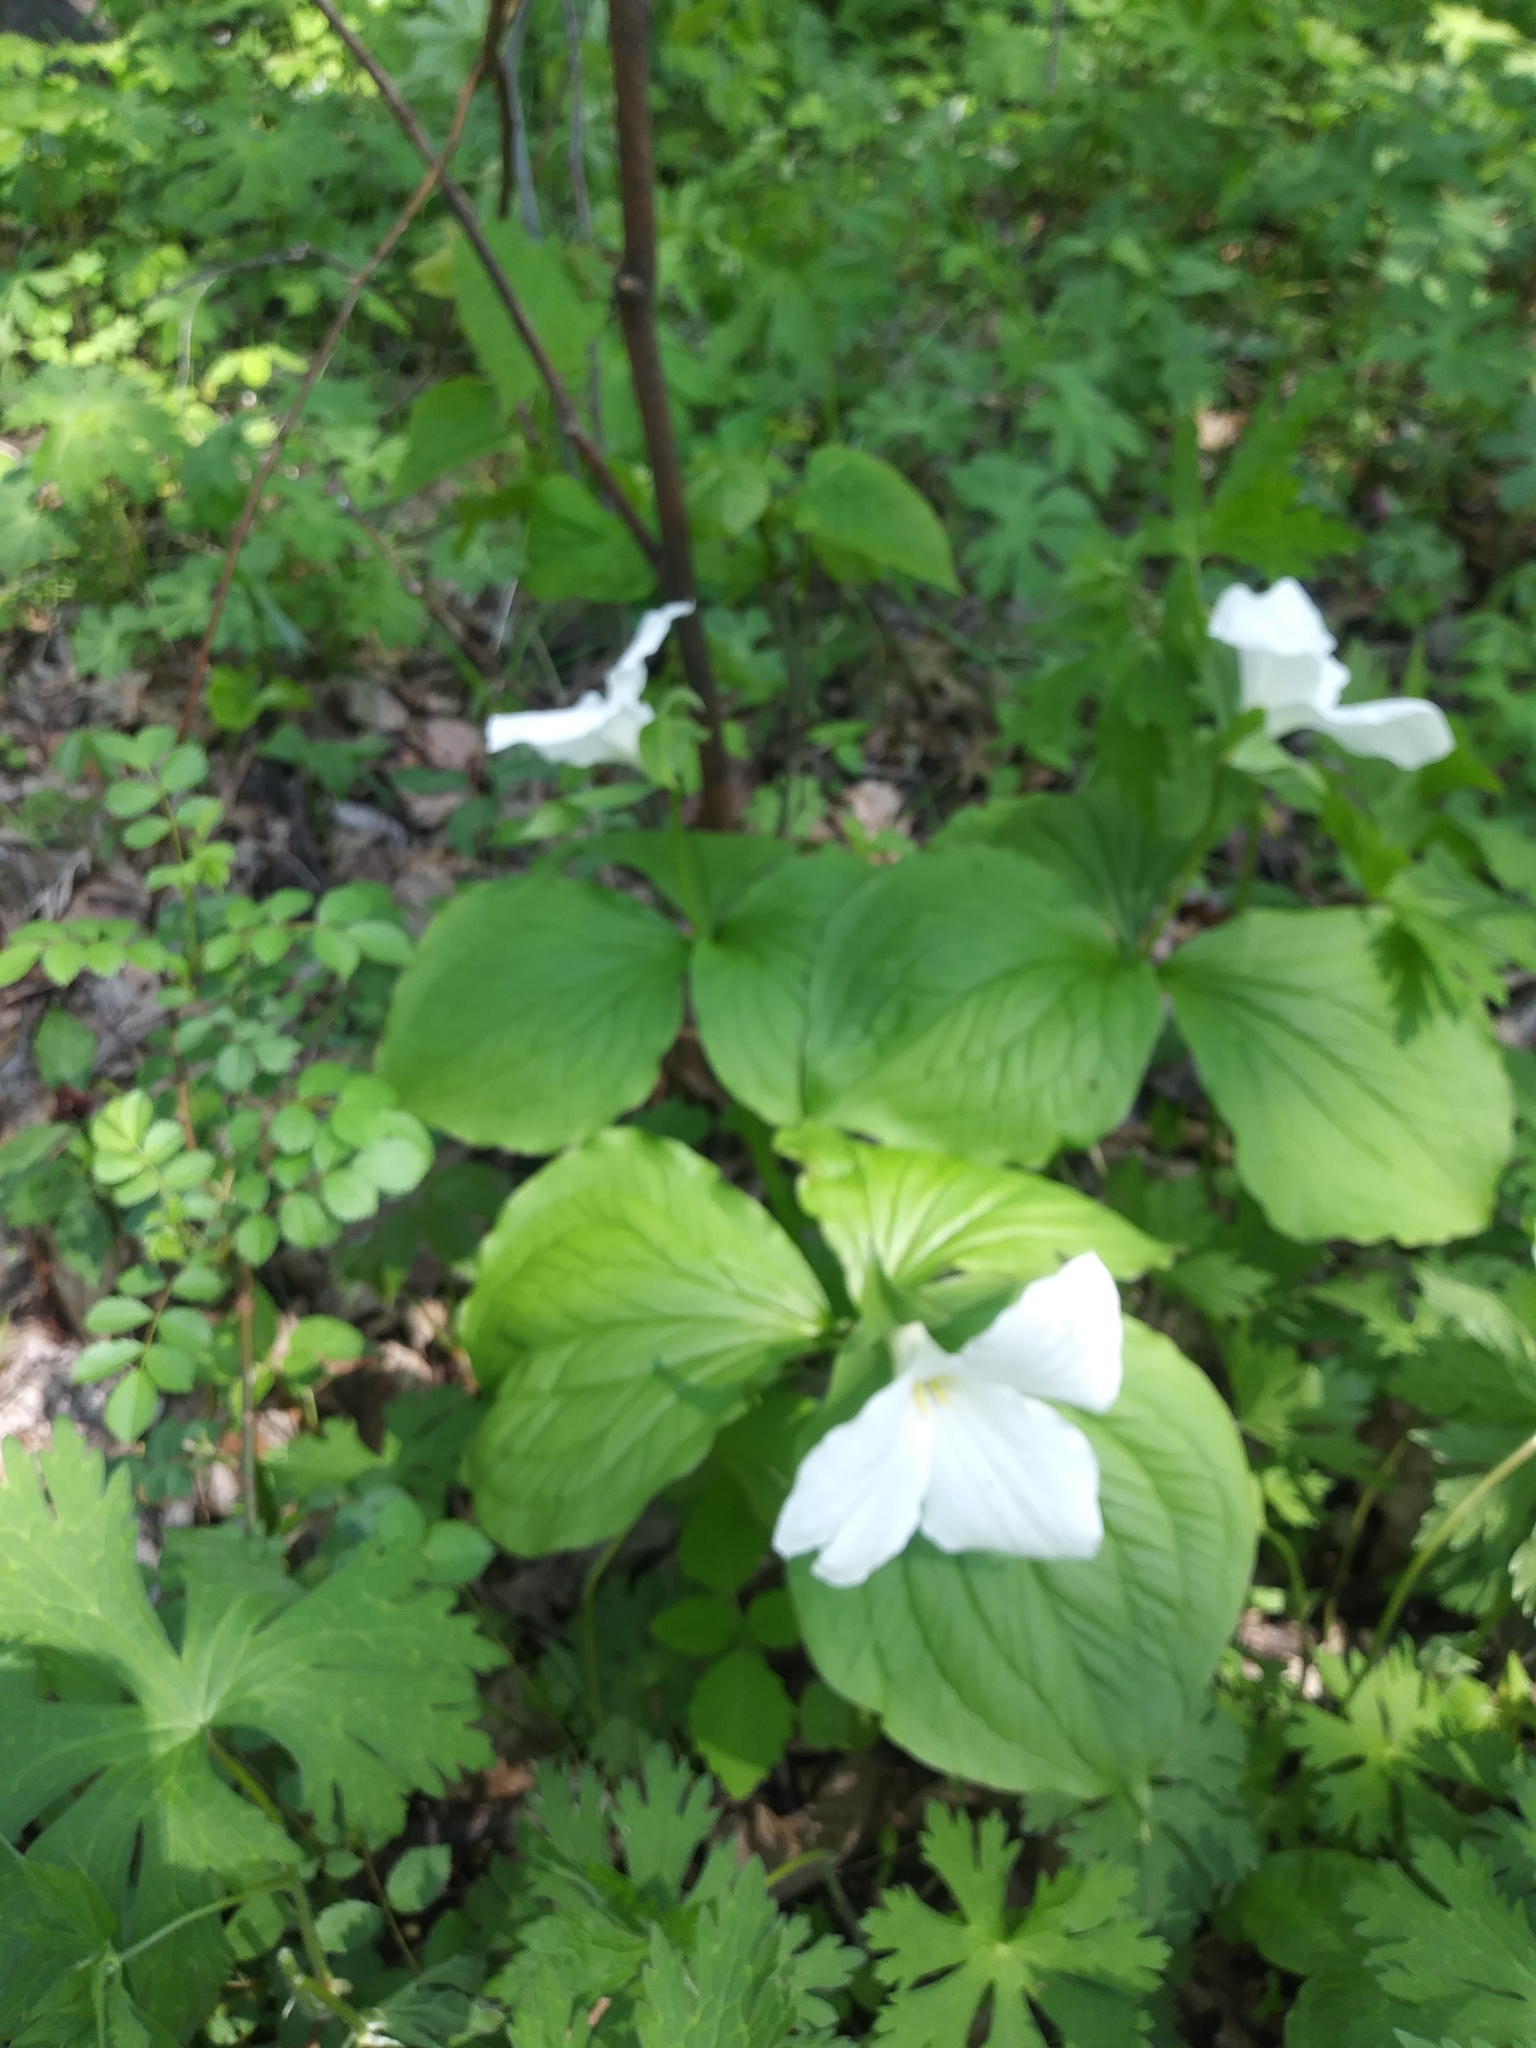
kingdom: Plantae
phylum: Tracheophyta
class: Liliopsida
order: Liliales
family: Melanthiaceae
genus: Trillium
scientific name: Trillium grandiflorum
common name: Great white trillium
